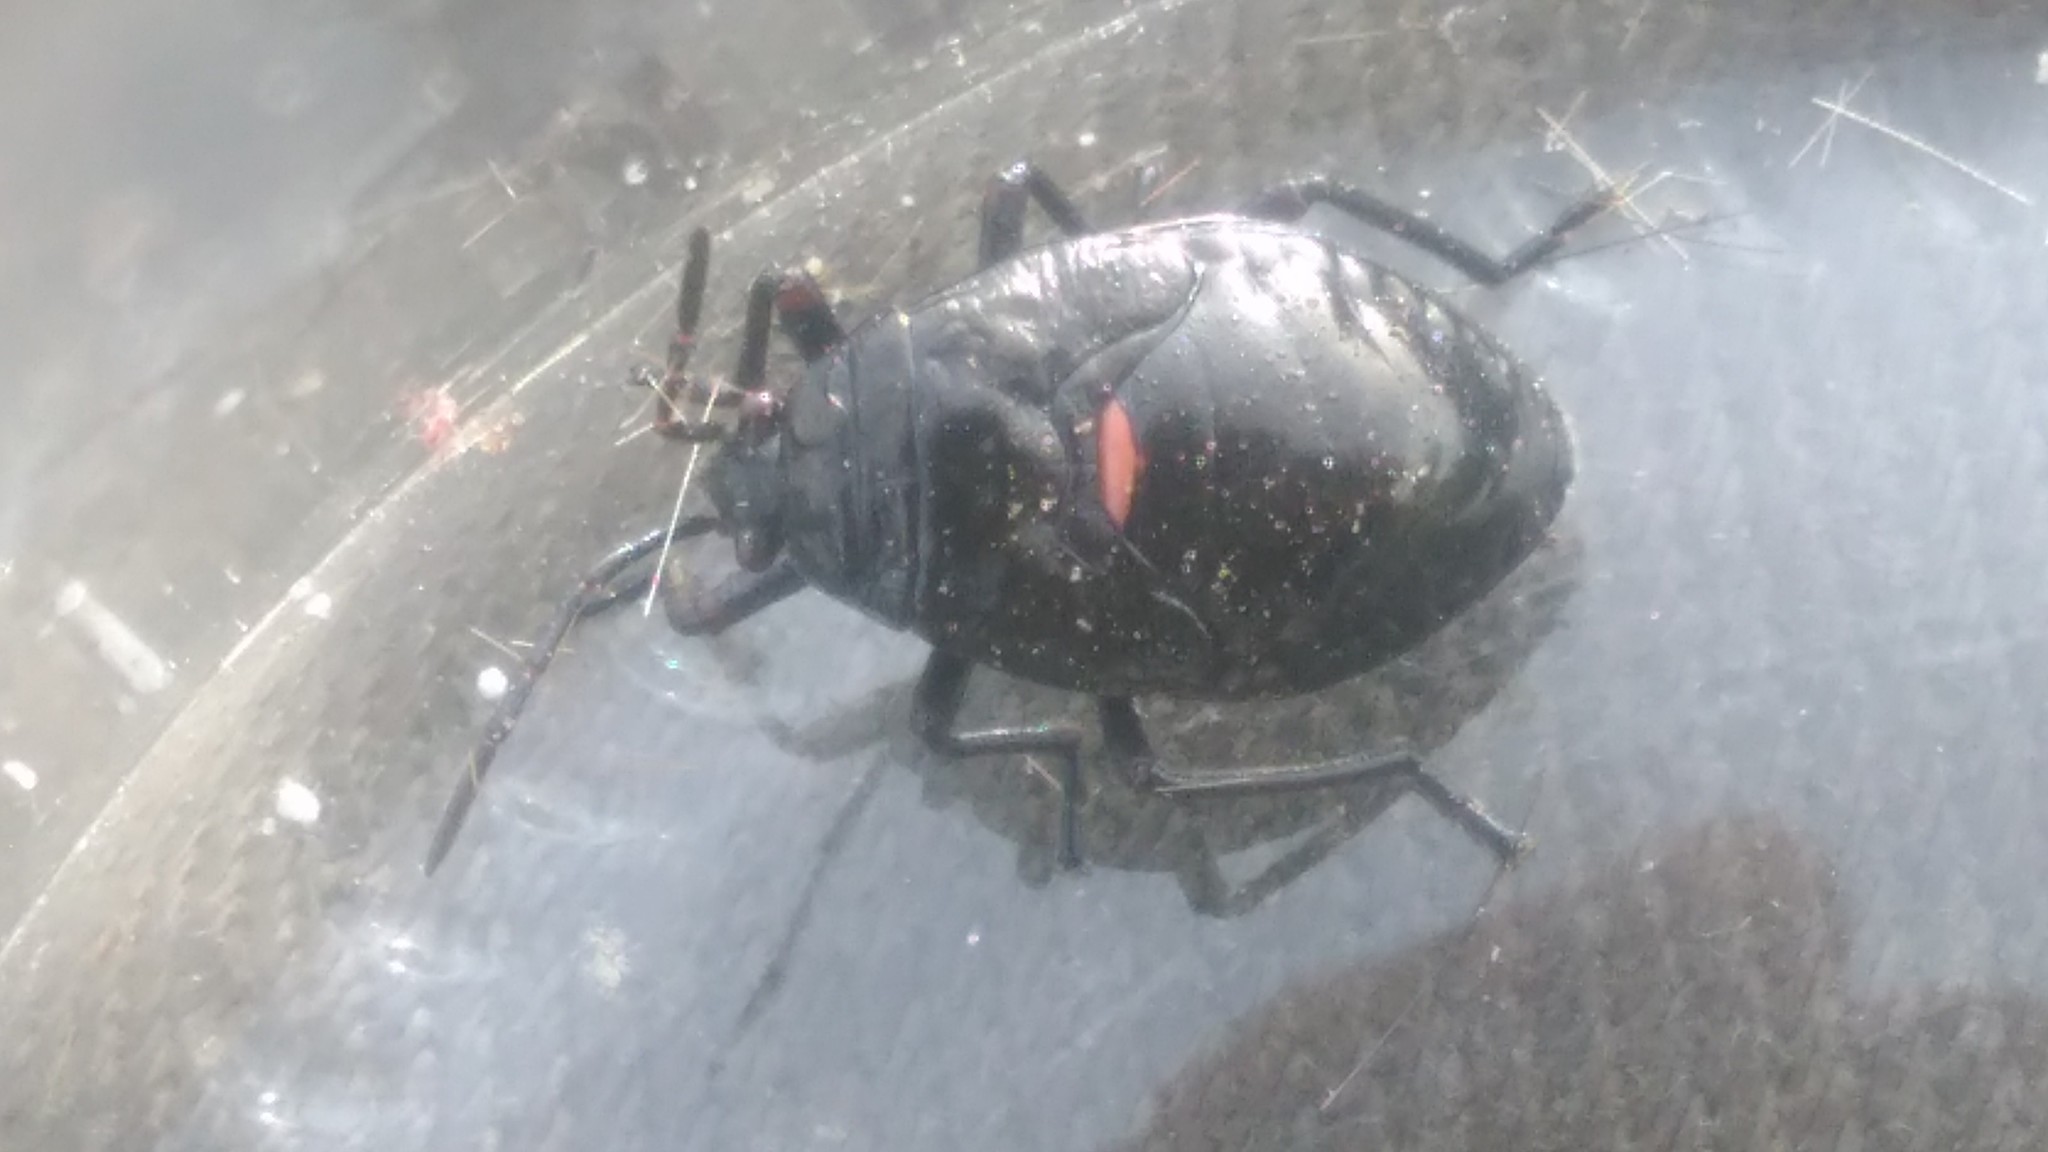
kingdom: Animalia
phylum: Arthropoda
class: Insecta
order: Hemiptera
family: Largidae
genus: Largus
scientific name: Largus rufipennis
